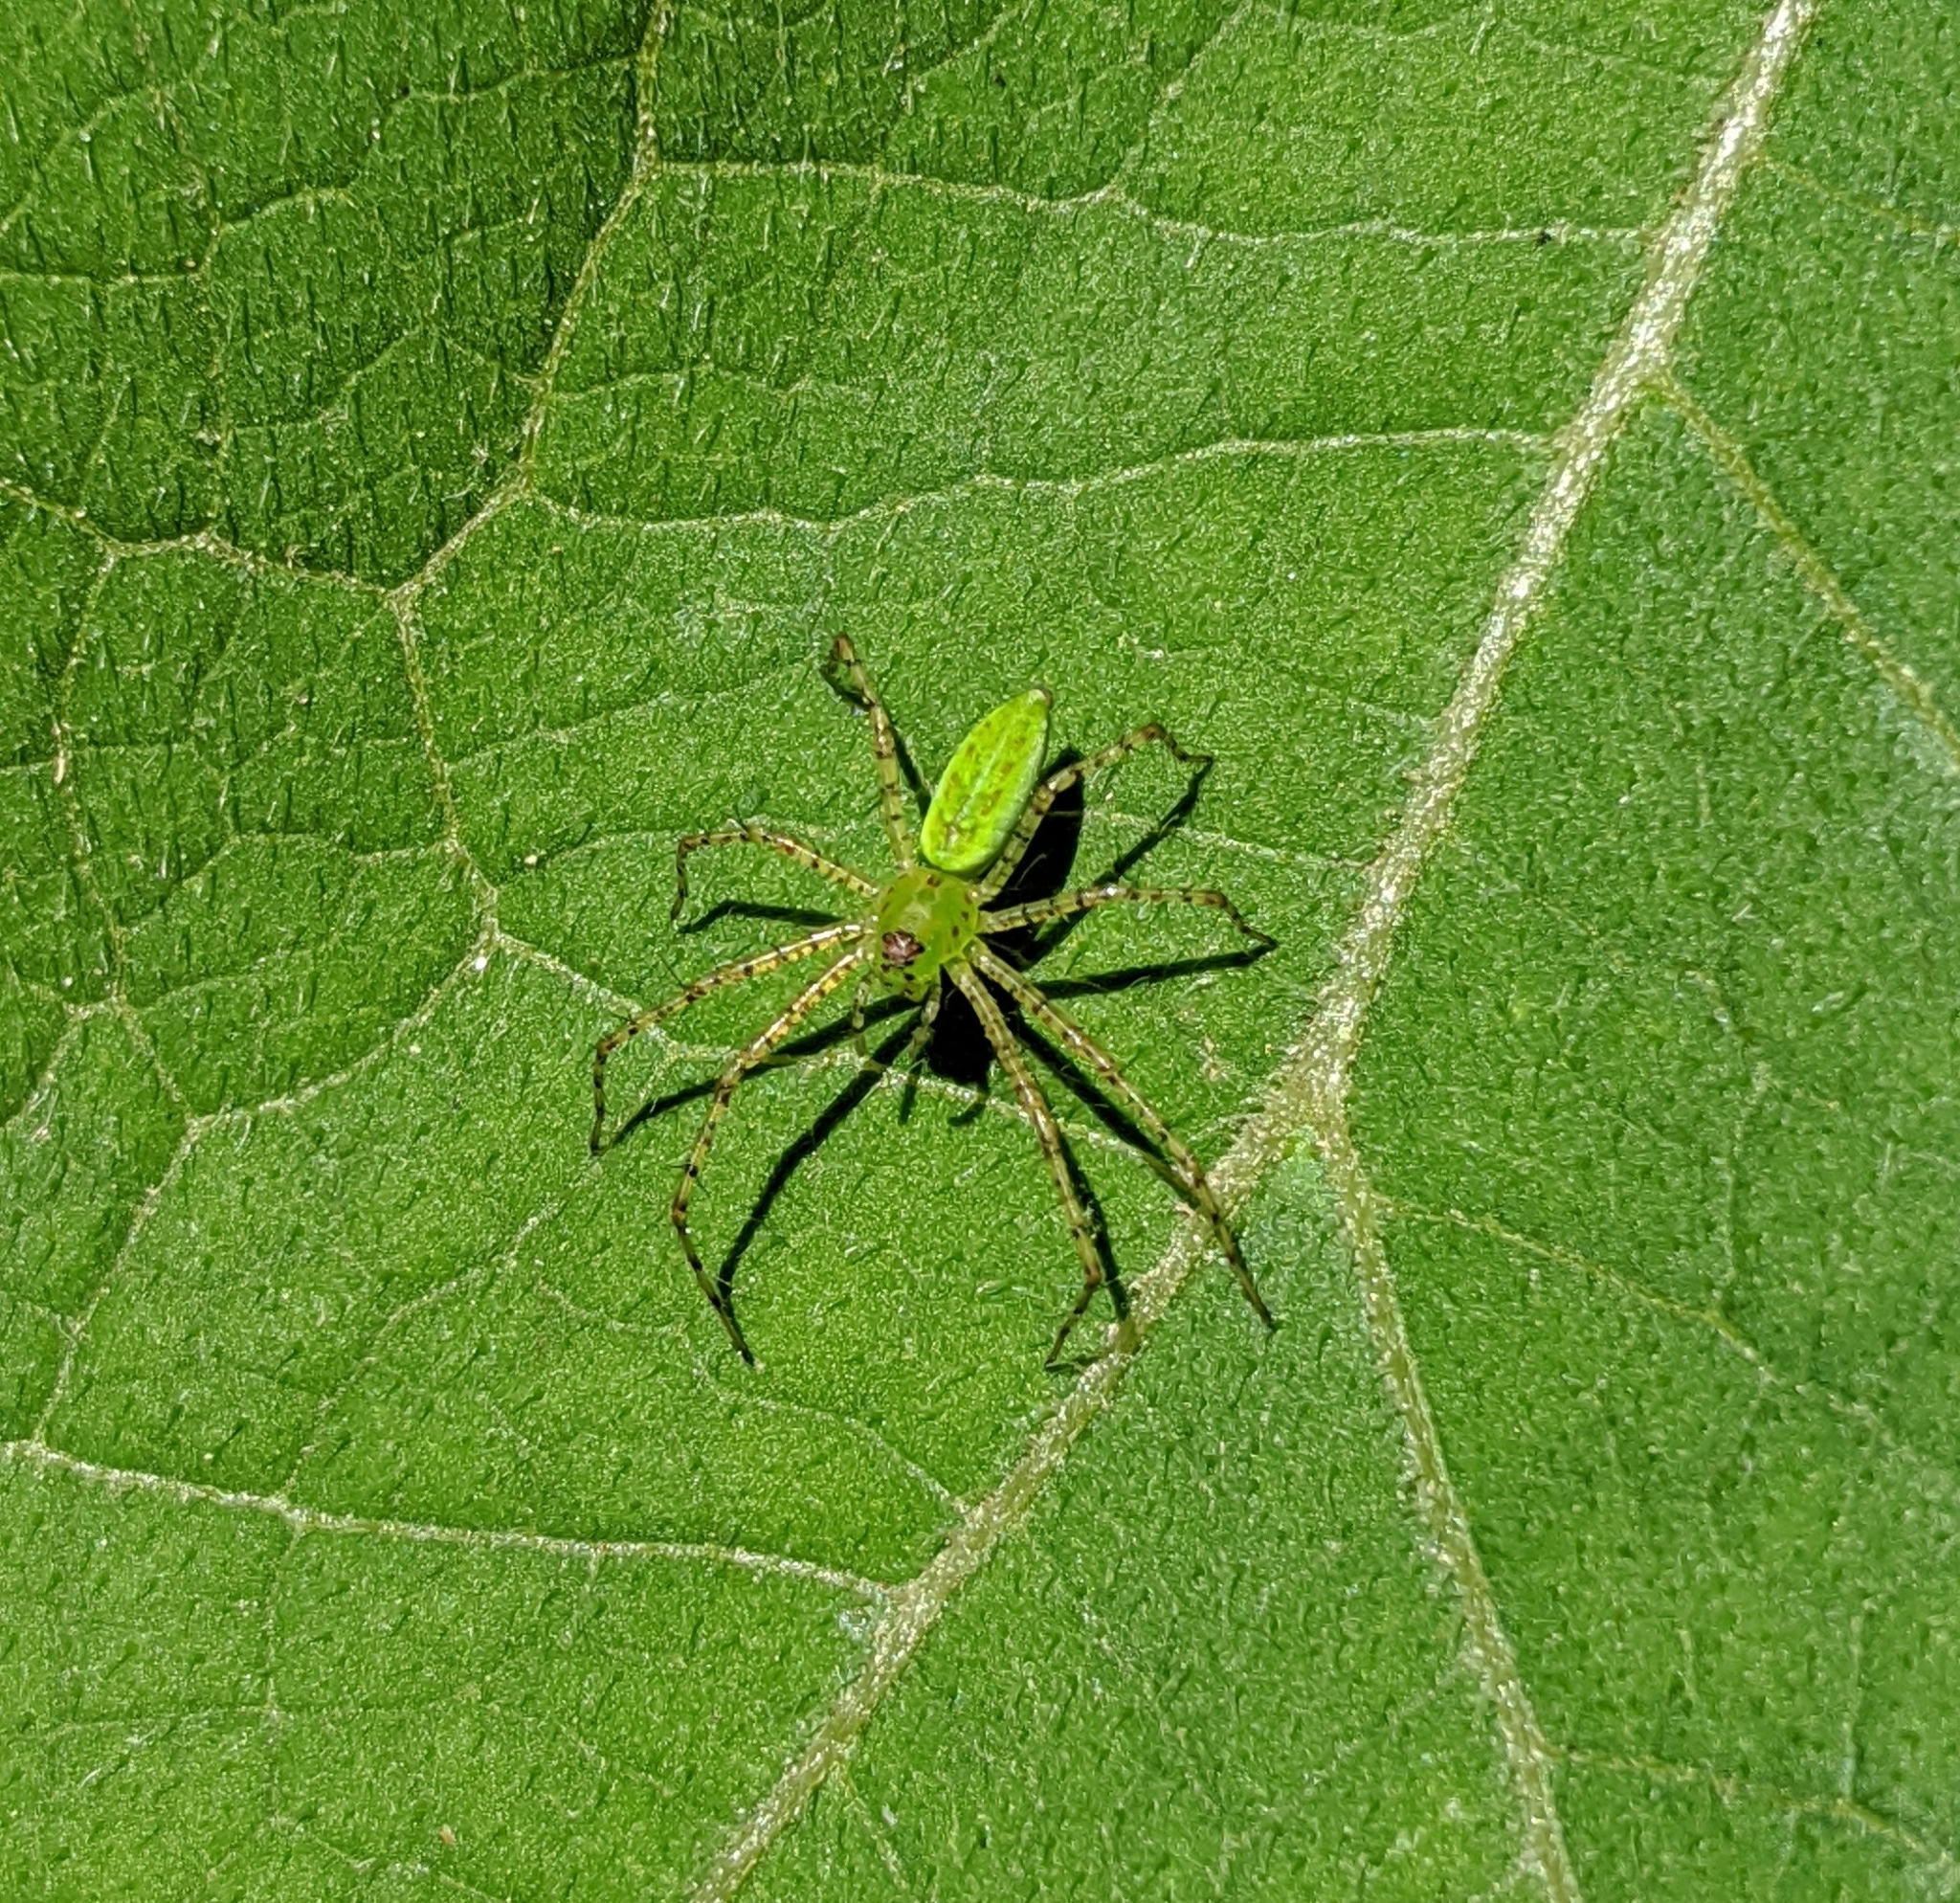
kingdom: Animalia
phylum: Arthropoda
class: Arachnida
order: Araneae
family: Oxyopidae
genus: Peucetia
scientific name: Peucetia viridans
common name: Lynx spiders
